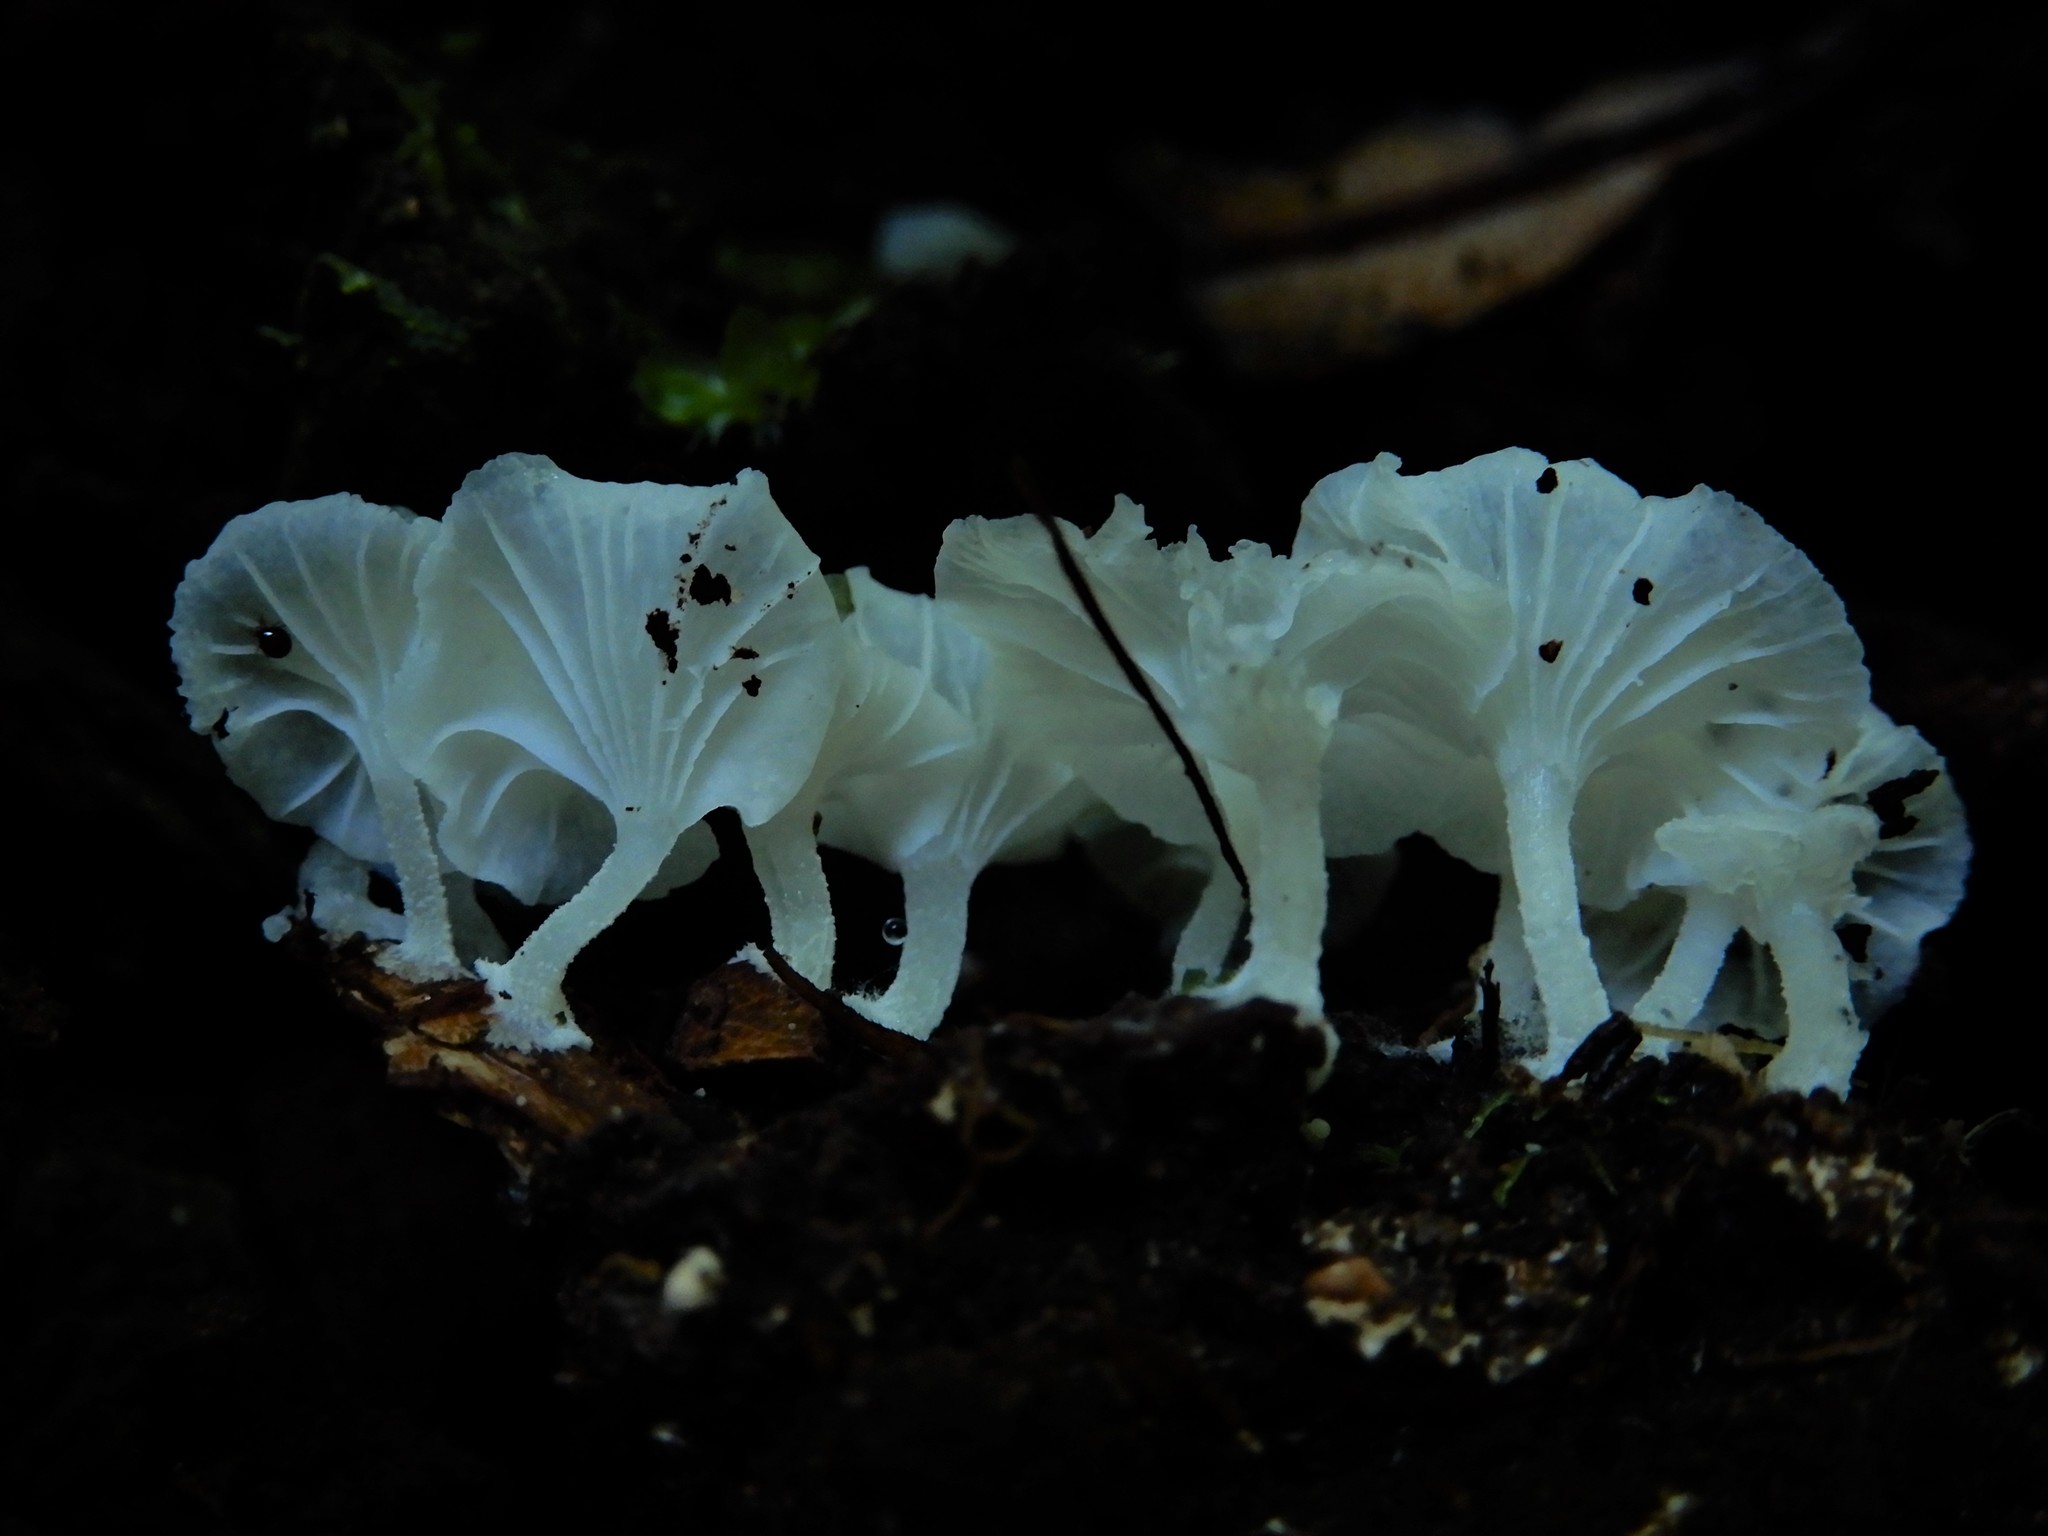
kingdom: Fungi
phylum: Basidiomycota
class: Agaricomycetes
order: Agaricales
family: Porotheleaceae
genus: Chrysomycena
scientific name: Chrysomycena
